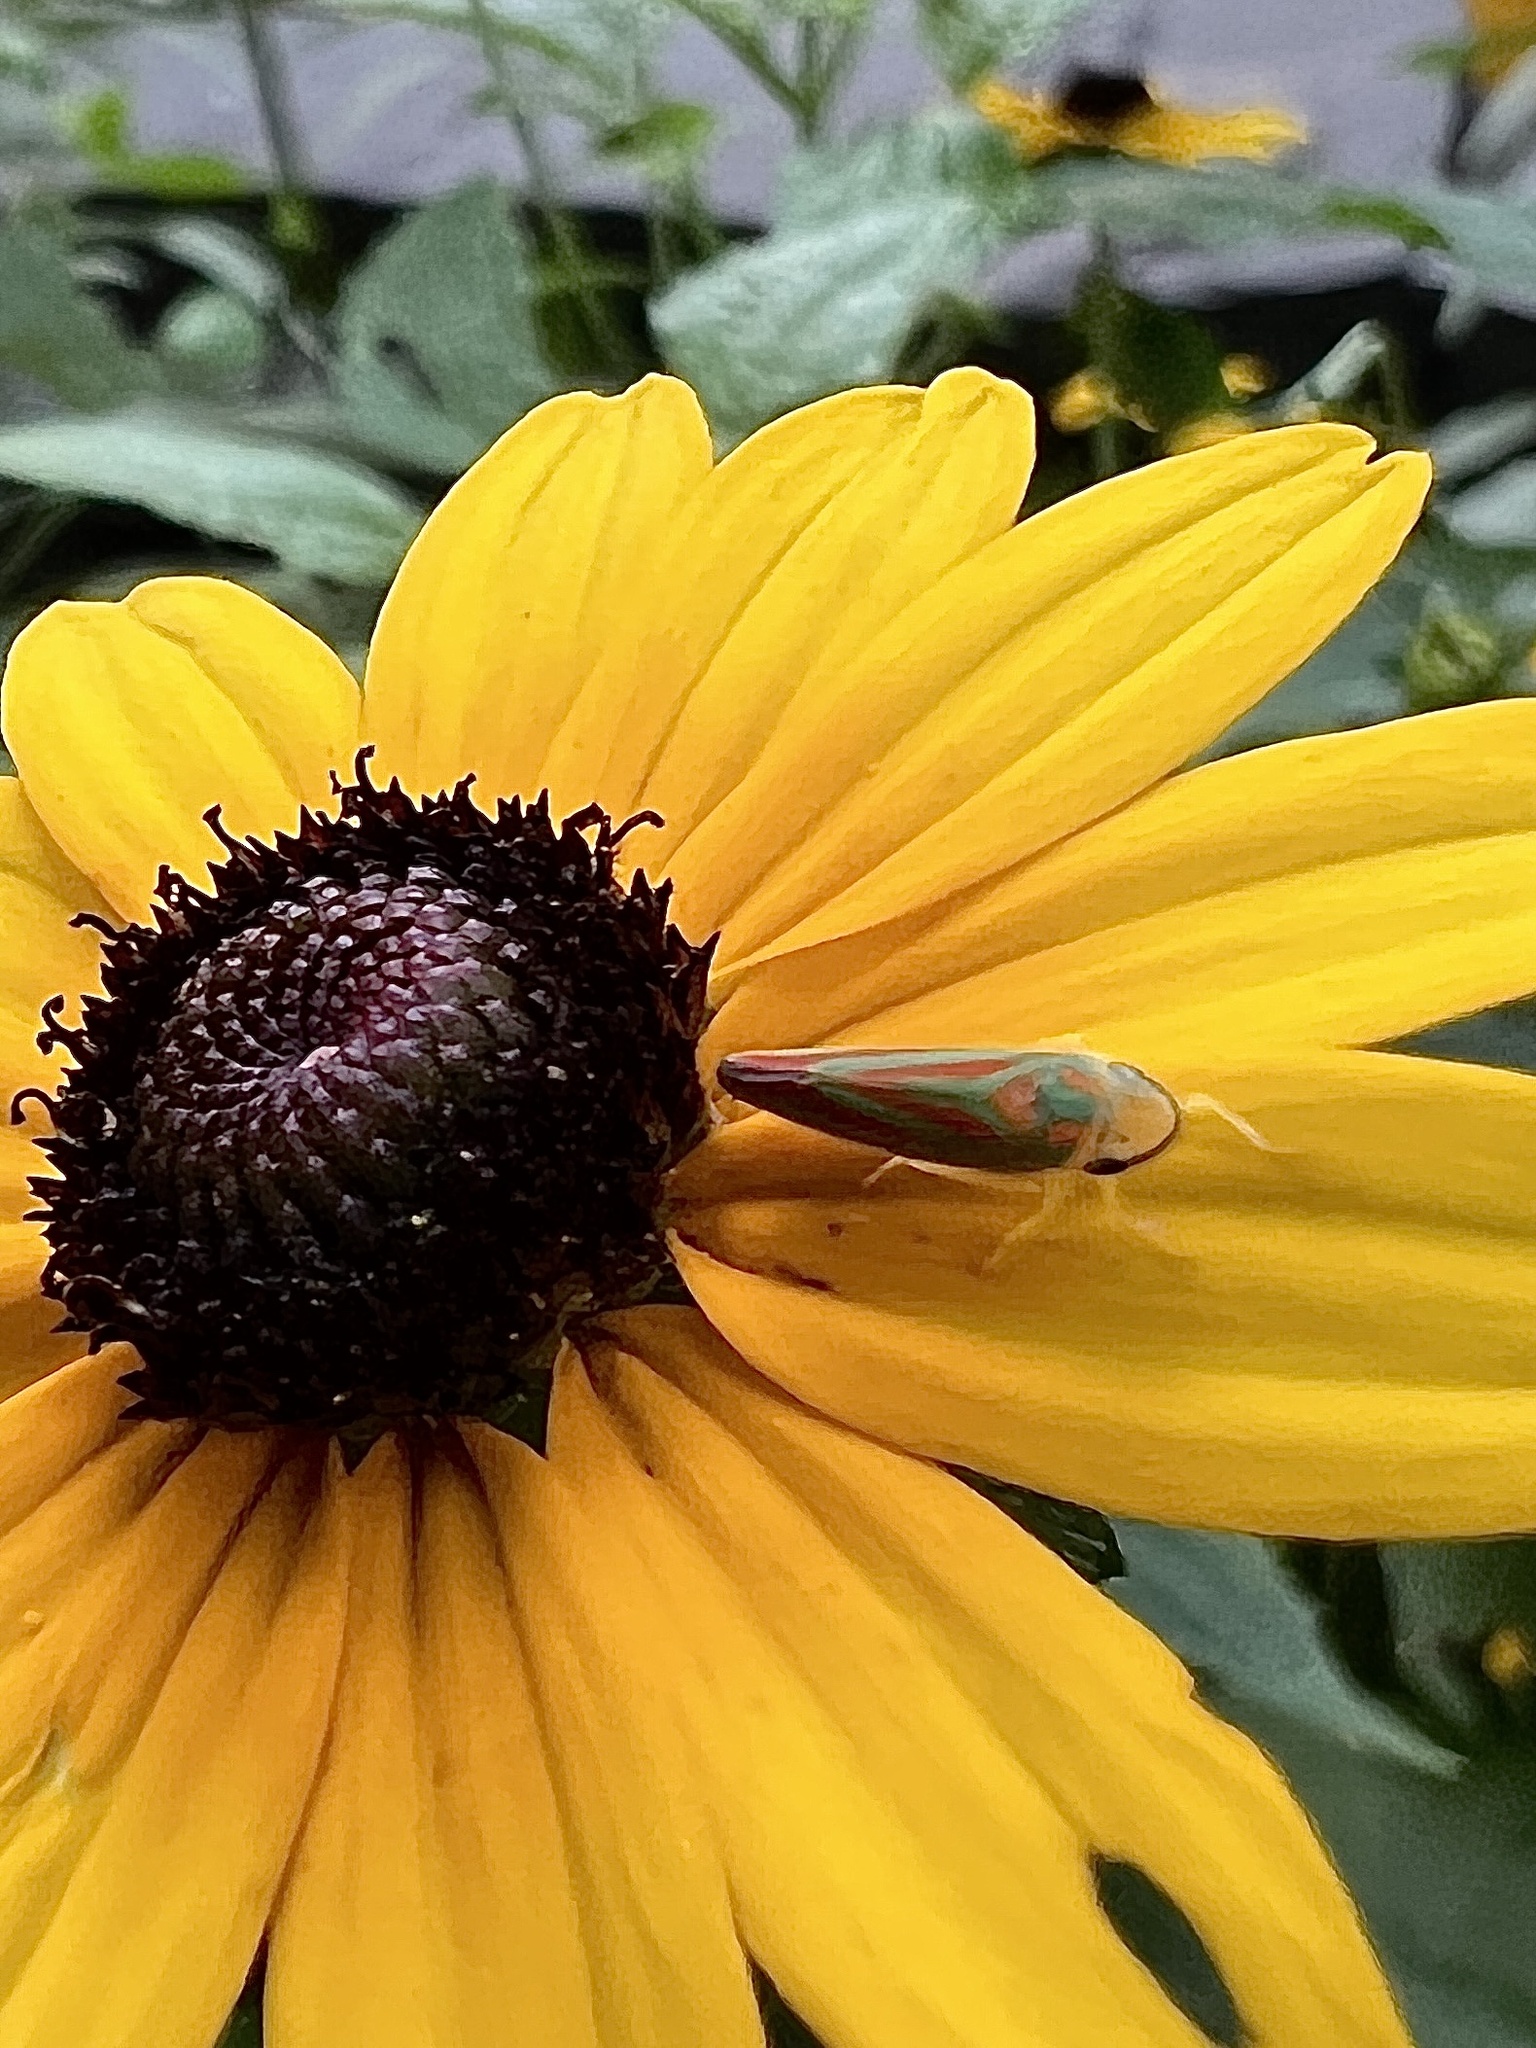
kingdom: Animalia
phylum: Arthropoda
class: Insecta
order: Hemiptera
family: Cicadellidae
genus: Graphocephala
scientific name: Graphocephala fennahi
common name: Rhododendron leafhopper
